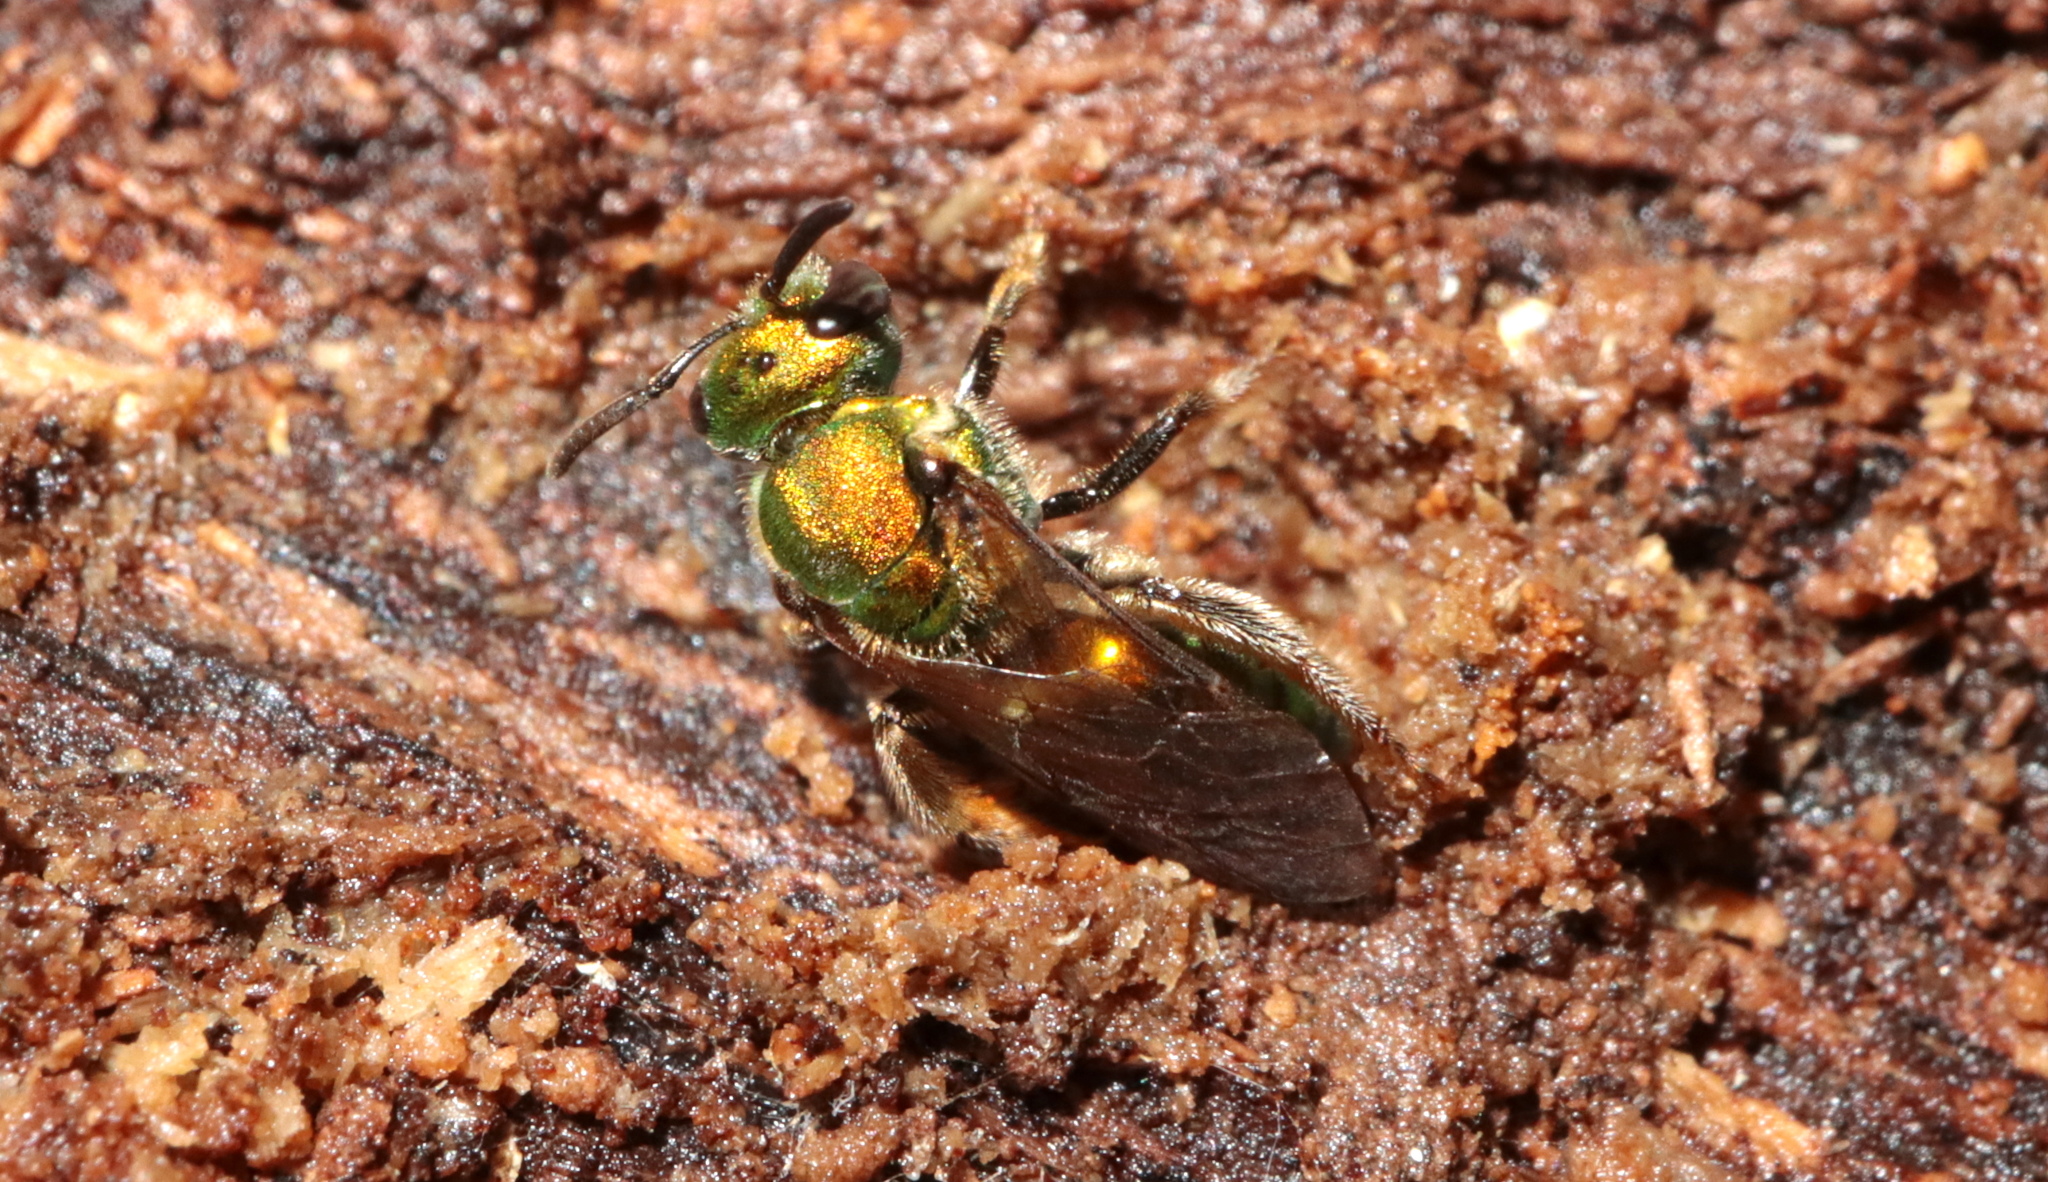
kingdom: Animalia
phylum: Arthropoda
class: Insecta
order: Hymenoptera
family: Halictidae
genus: Augochlora
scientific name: Augochlora pura
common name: Pure green sweat bee
